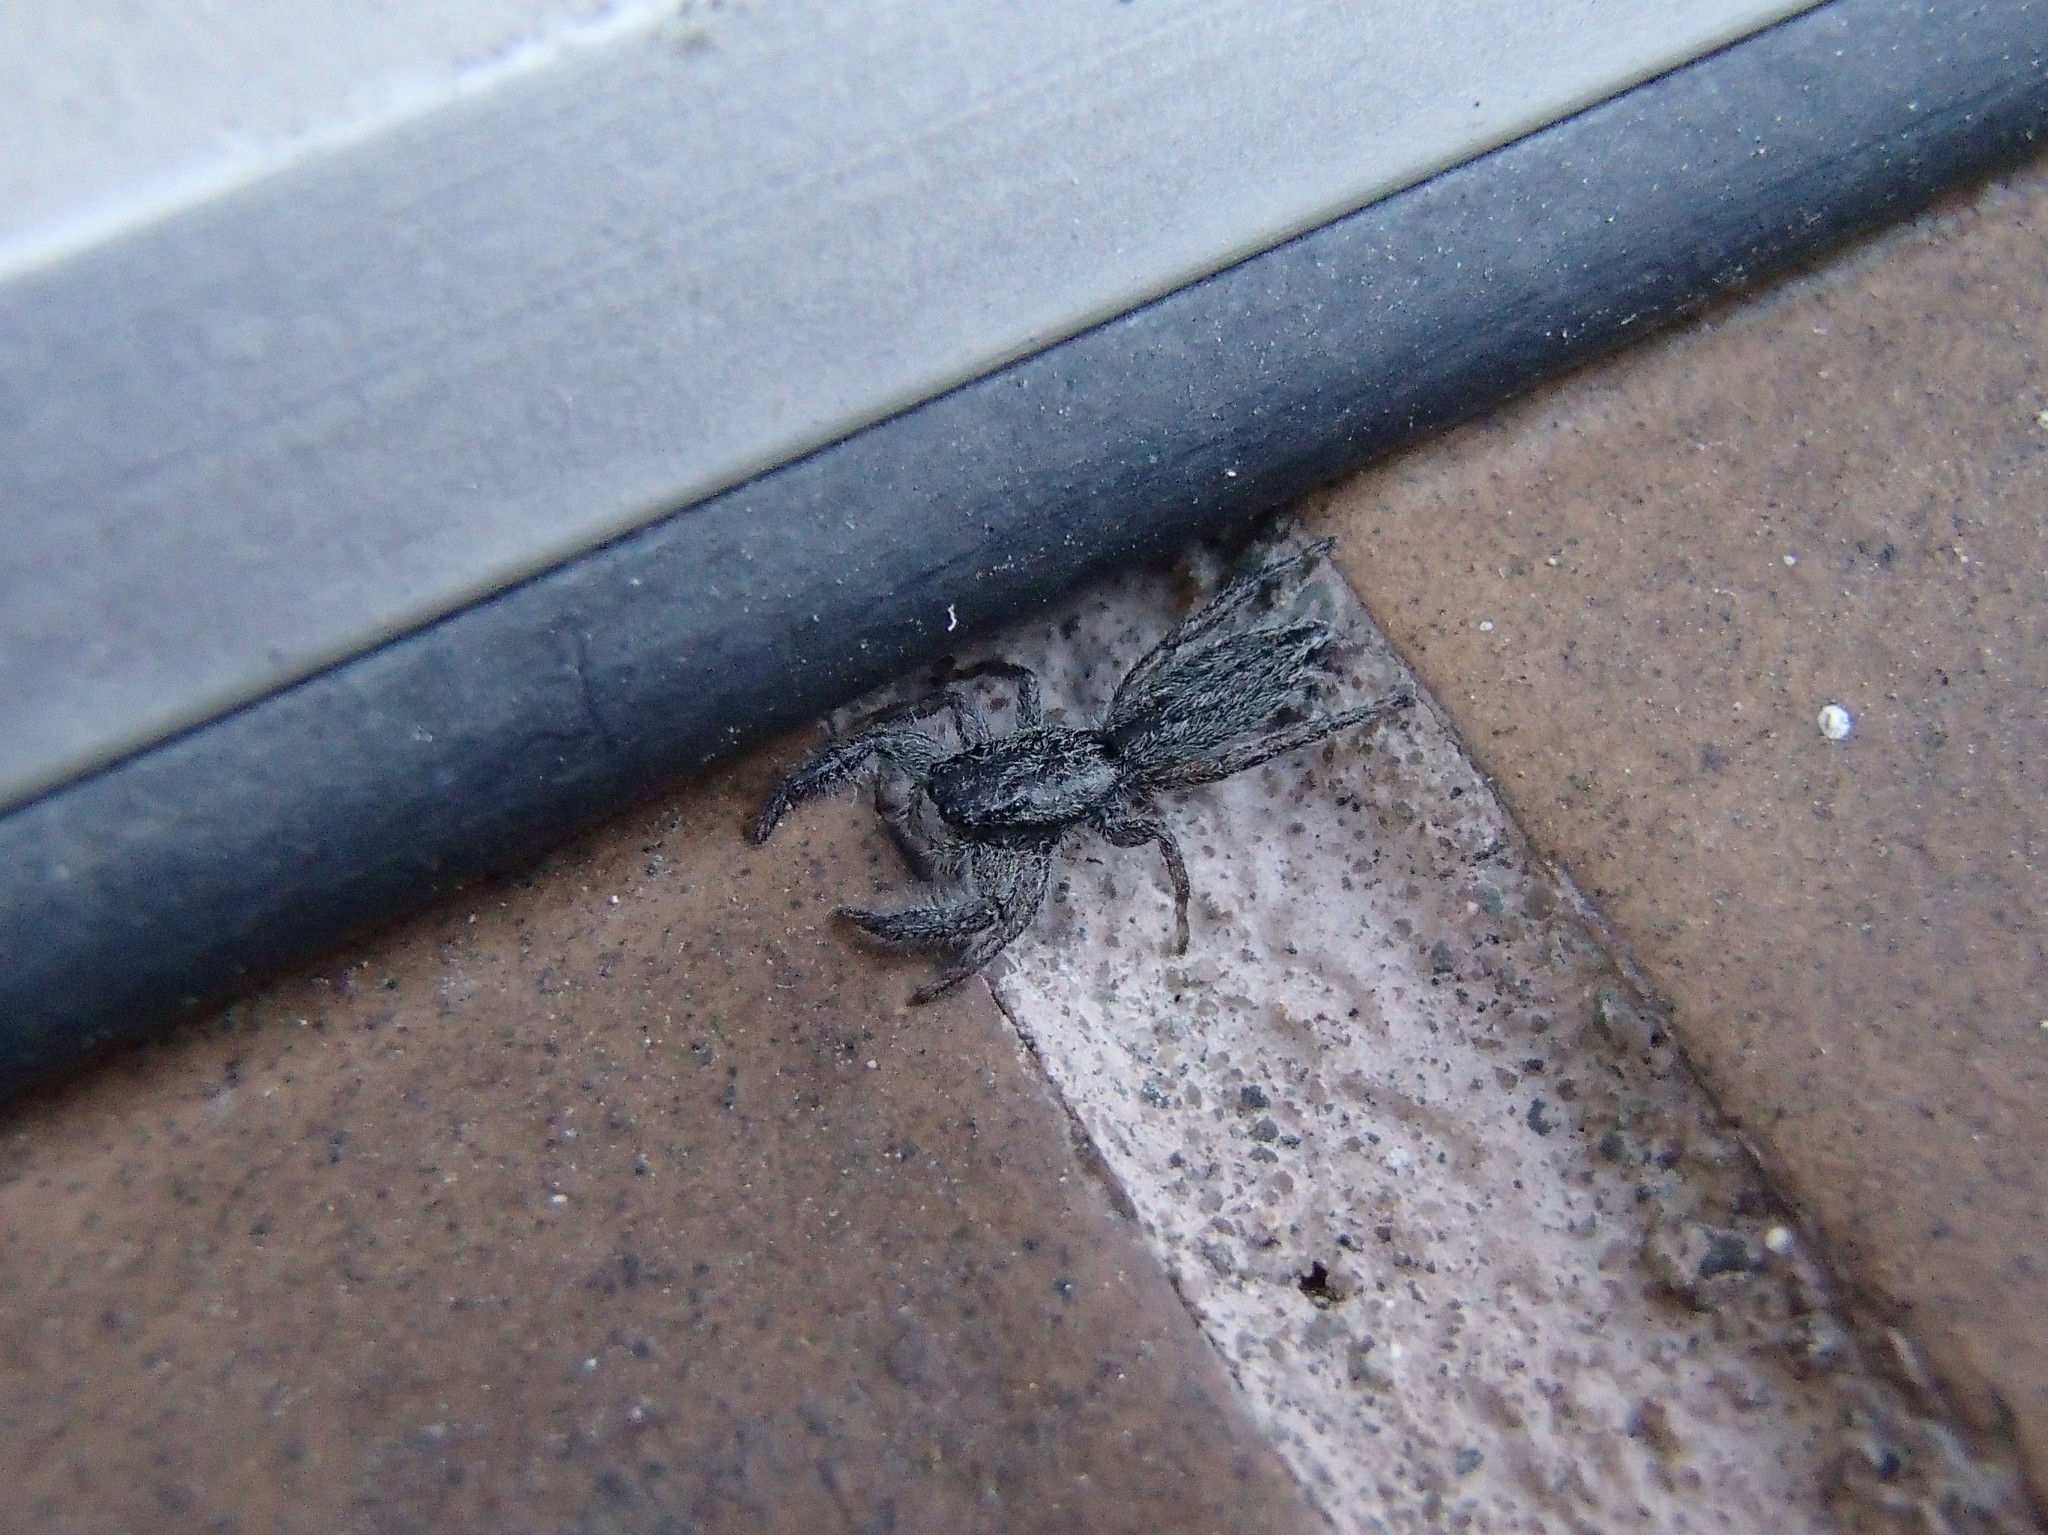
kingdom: Animalia
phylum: Arthropoda
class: Arachnida
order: Araneae
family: Salticidae
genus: Holoplatys
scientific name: Holoplatys apressus
